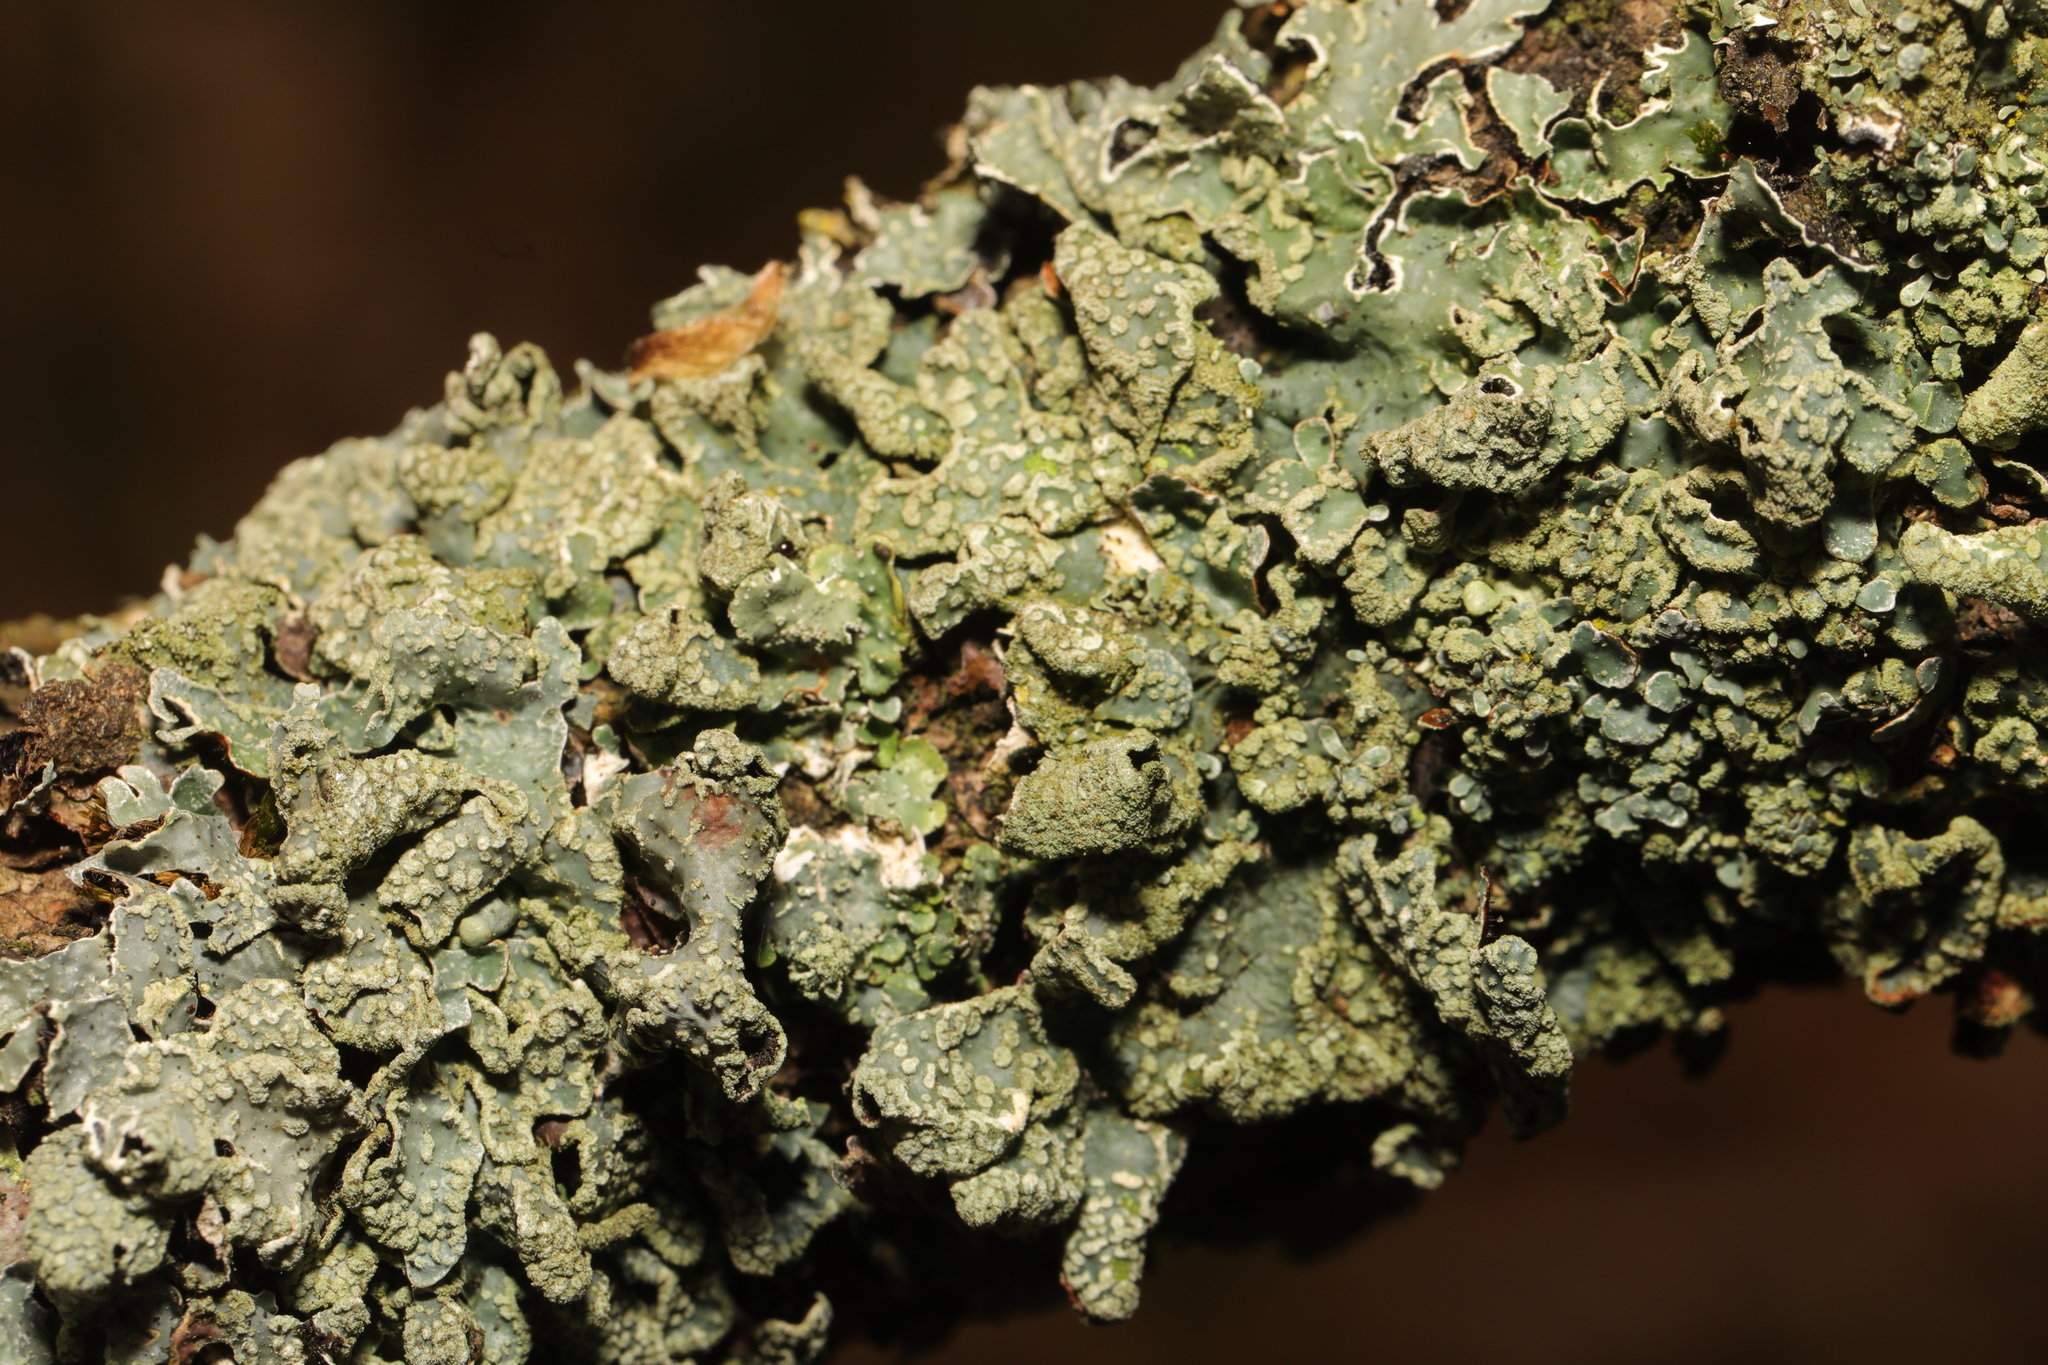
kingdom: Fungi
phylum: Ascomycota
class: Lecanoromycetes
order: Lecanorales
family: Parmeliaceae
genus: Parmelia
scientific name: Parmelia sulcata
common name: Netted shield lichen
